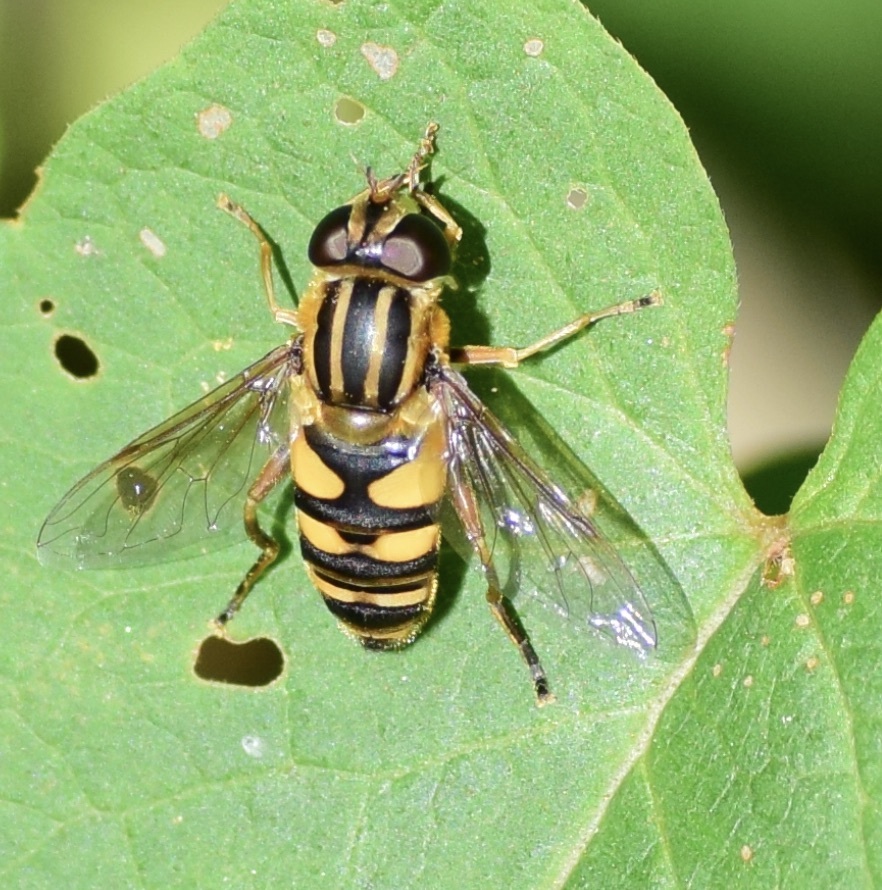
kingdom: Animalia
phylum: Arthropoda
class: Insecta
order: Diptera
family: Syrphidae
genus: Helophilus
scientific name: Helophilus fasciatus
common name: Narrow-headed marsh fly
